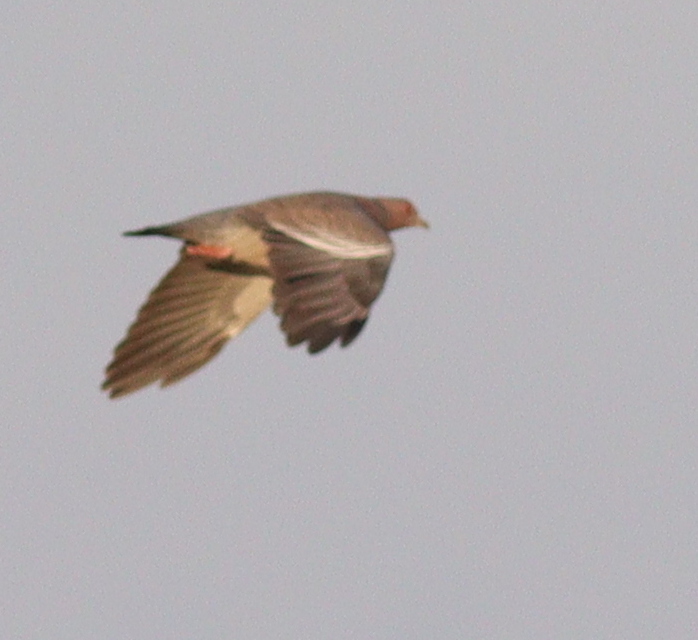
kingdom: Animalia
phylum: Chordata
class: Aves
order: Columbiformes
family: Columbidae
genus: Patagioenas
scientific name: Patagioenas picazuro
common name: Picazuro pigeon
